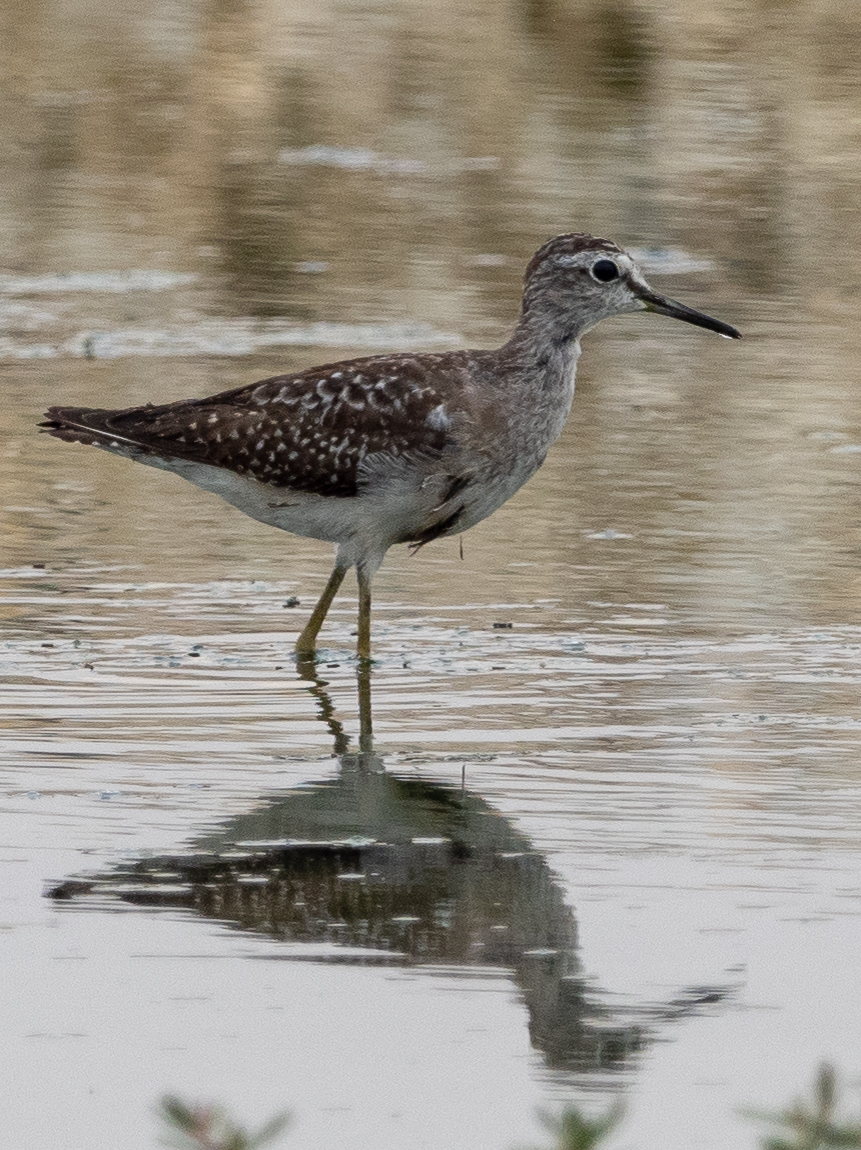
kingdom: Animalia
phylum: Chordata
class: Aves
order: Charadriiformes
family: Scolopacidae
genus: Tringa
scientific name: Tringa glareola
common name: Wood sandpiper
